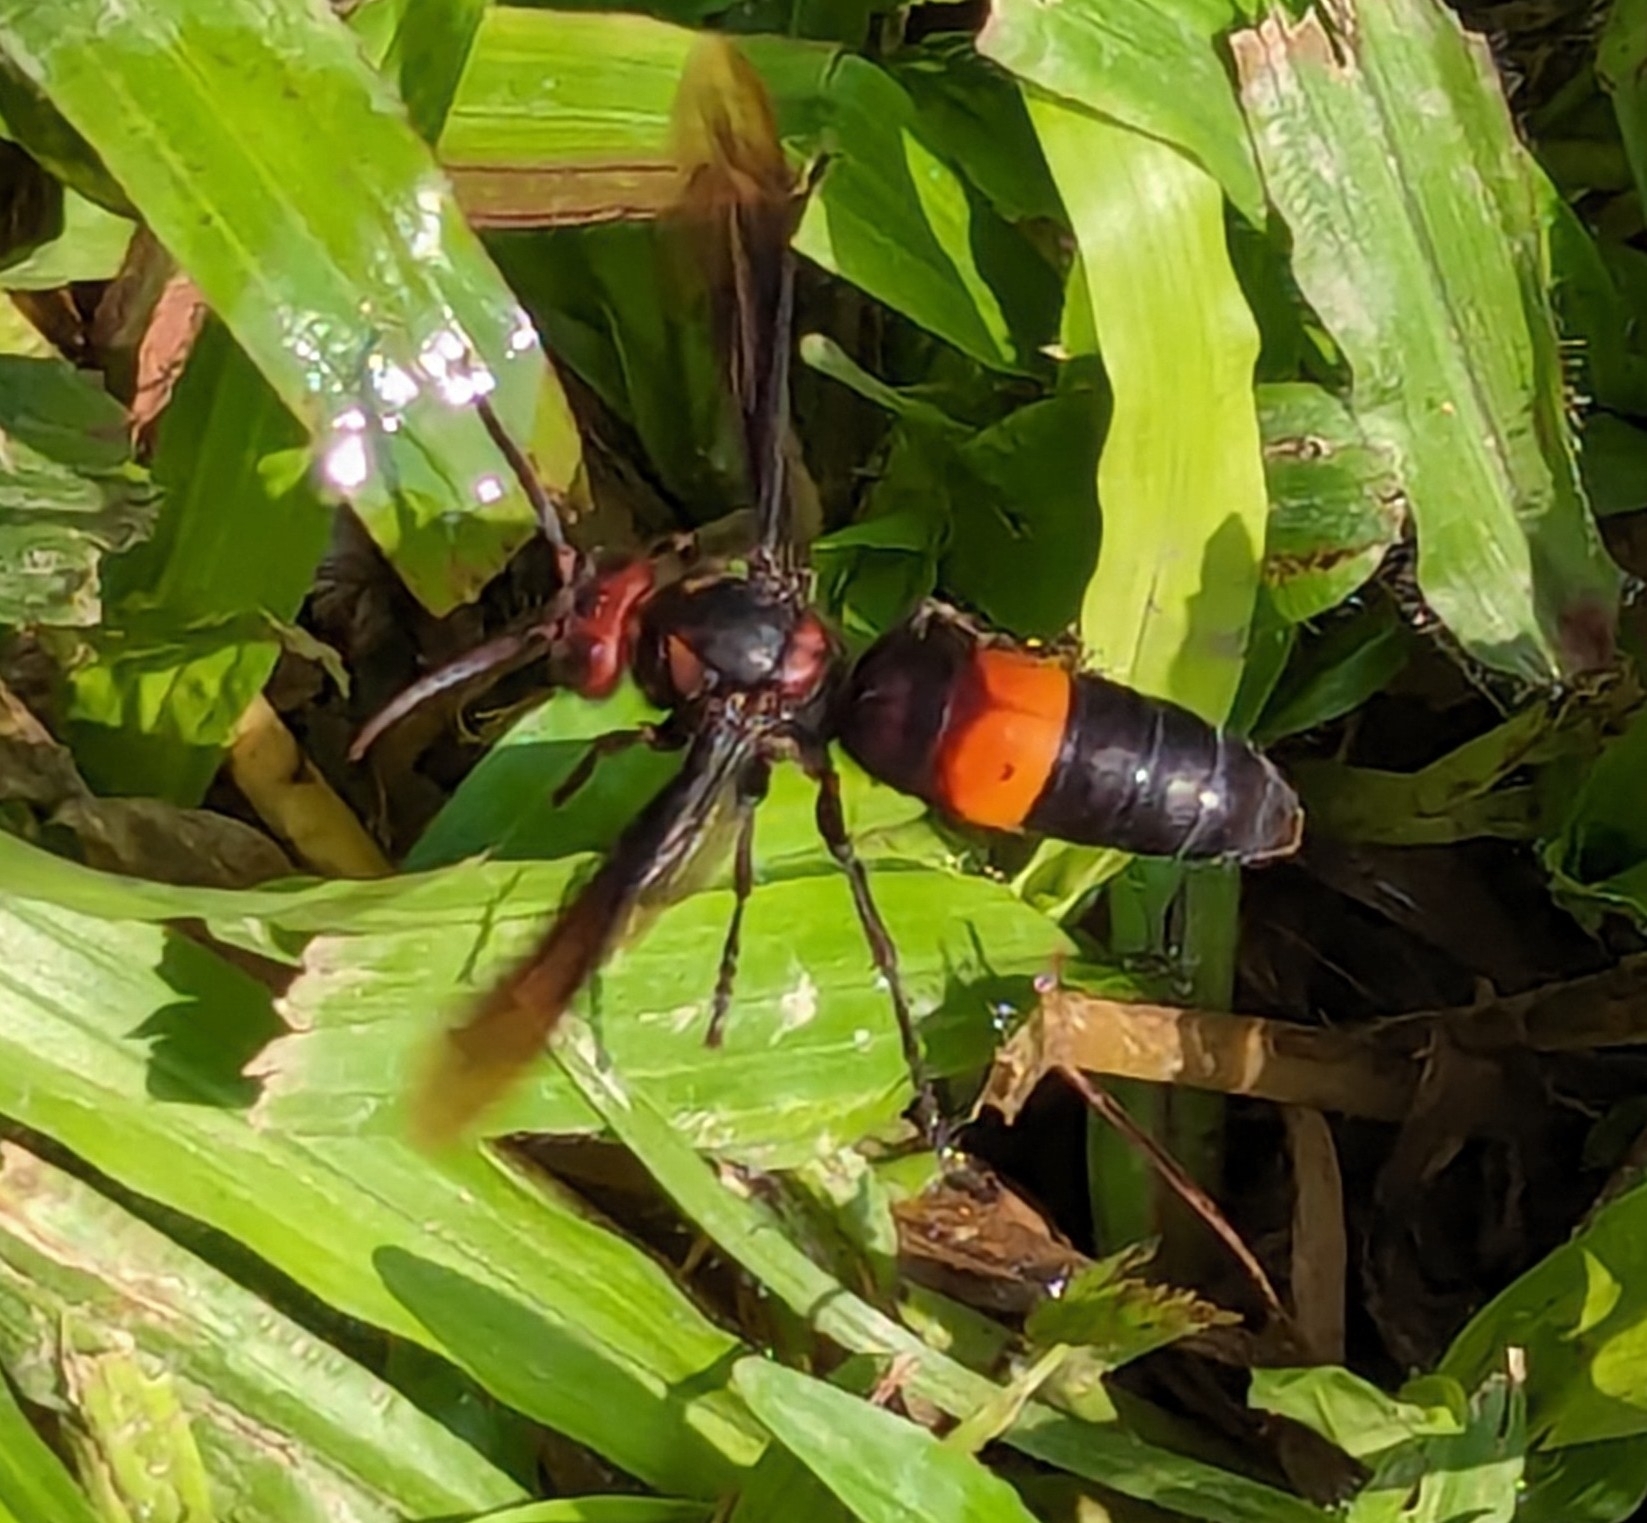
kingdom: Animalia
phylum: Arthropoda
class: Insecta
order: Hymenoptera
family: Vespidae
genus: Vespa
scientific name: Vespa tropica
